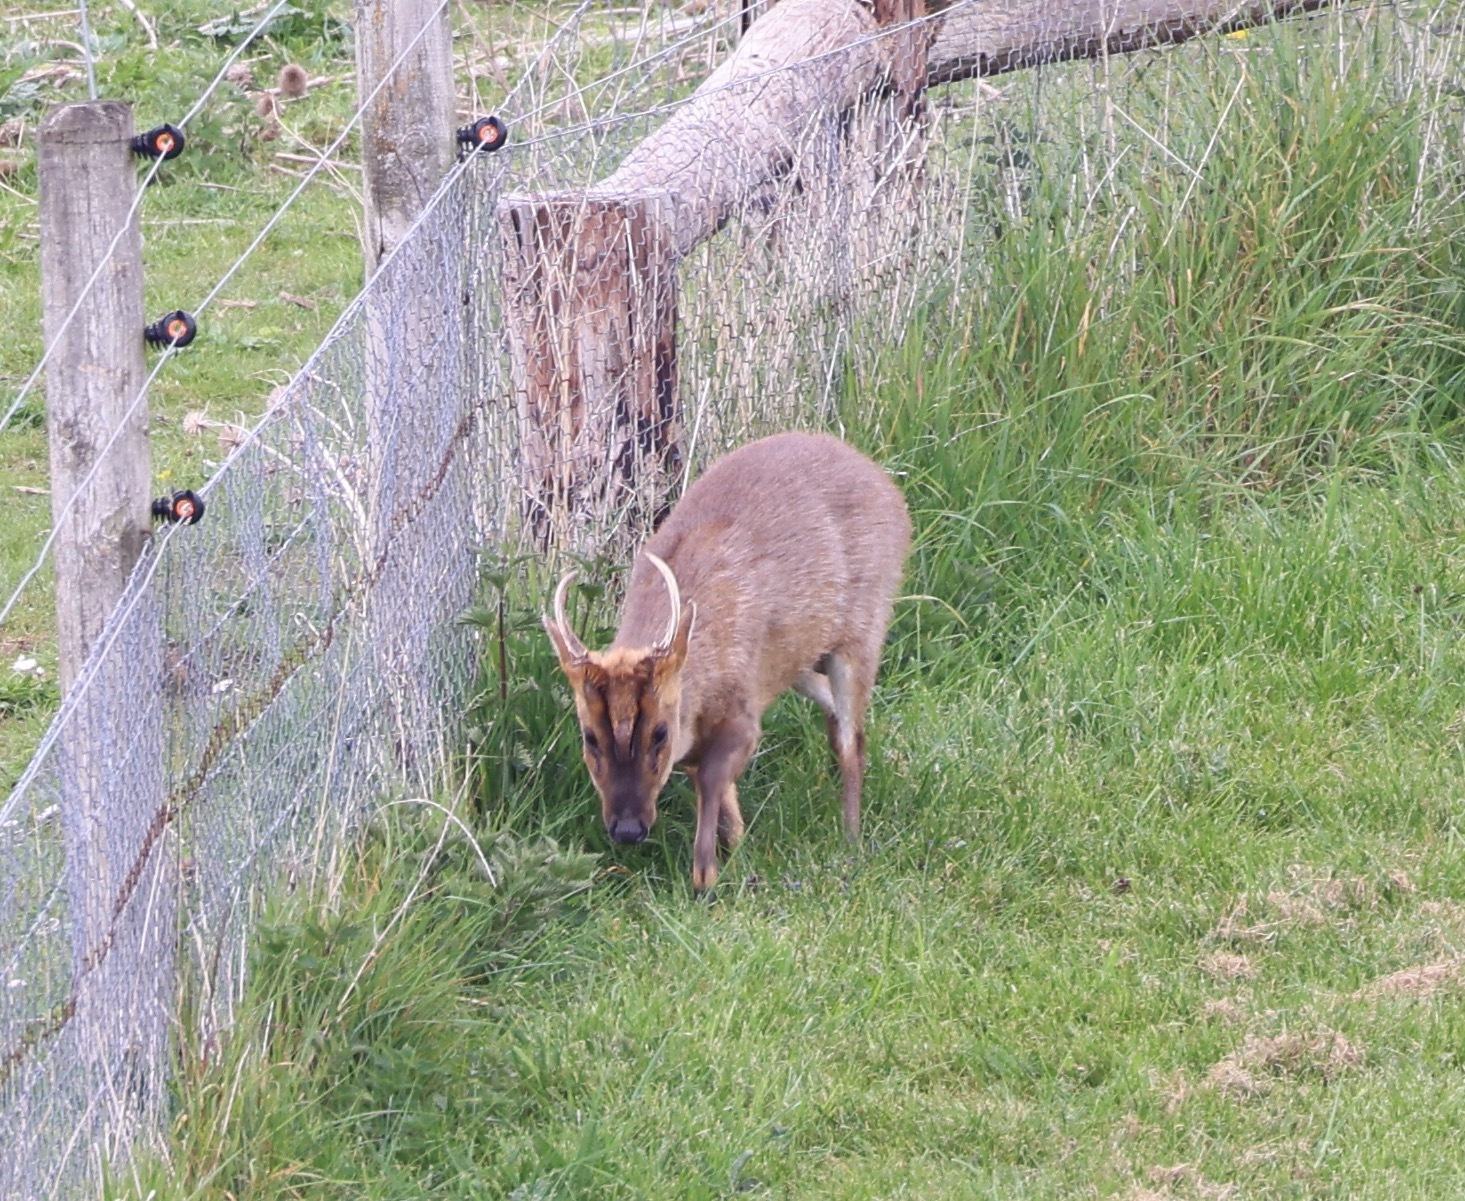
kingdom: Animalia
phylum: Chordata
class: Mammalia
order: Artiodactyla
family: Cervidae
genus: Muntiacus
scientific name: Muntiacus reevesi
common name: Reeves' muntjac
